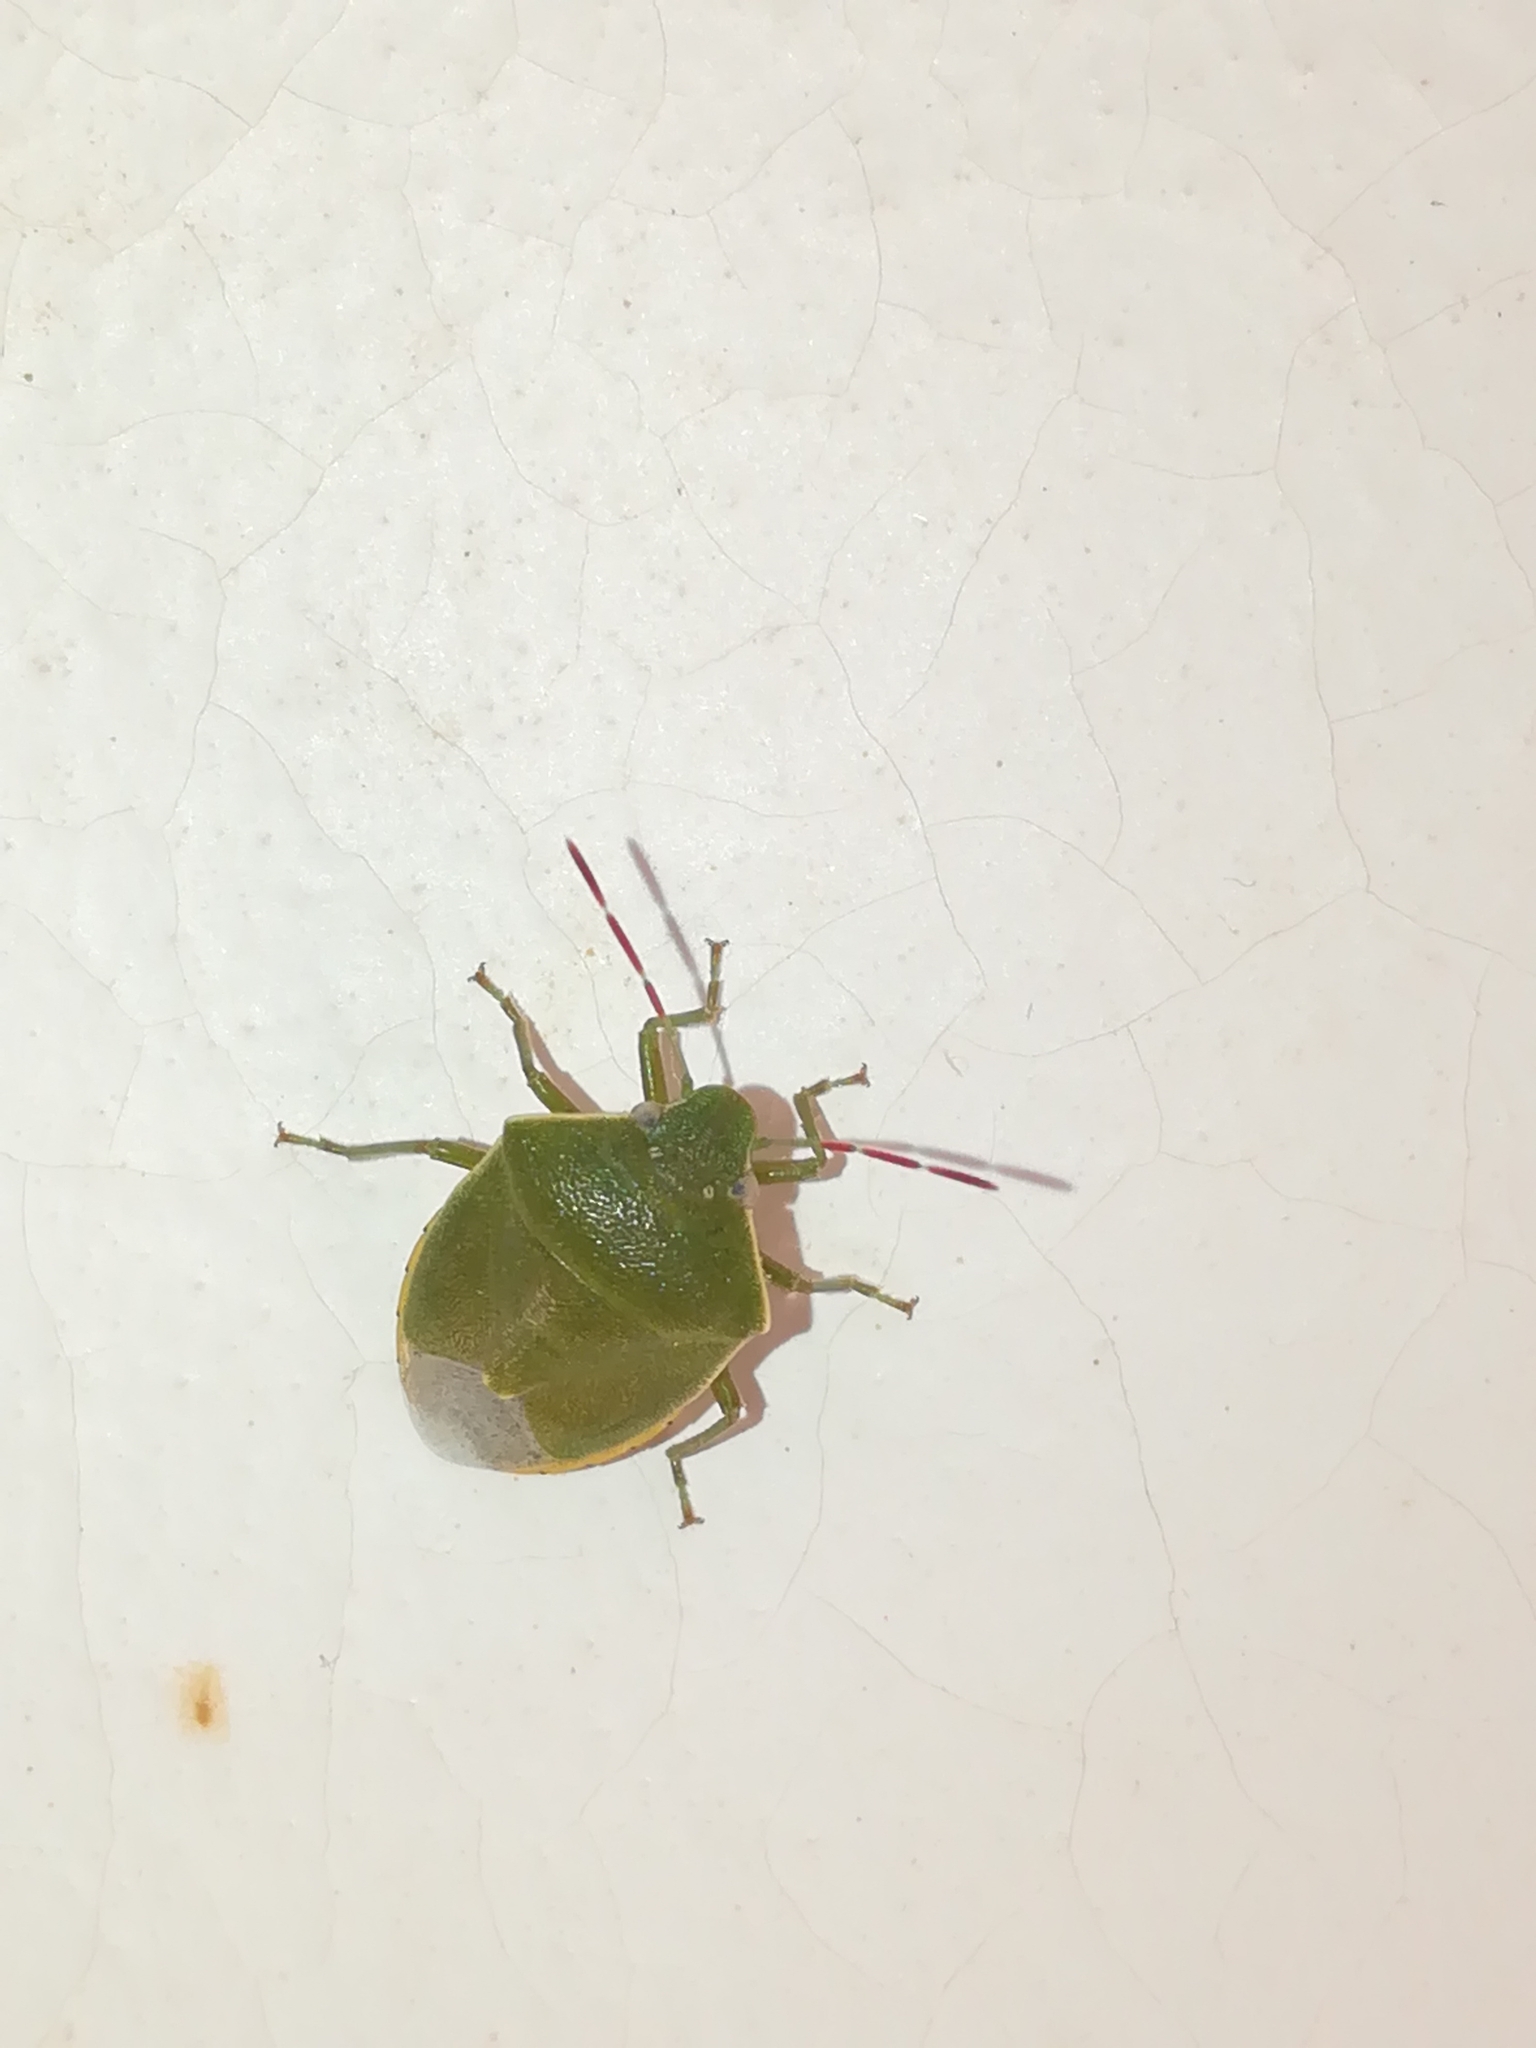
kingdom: Animalia
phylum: Arthropoda
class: Insecta
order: Hemiptera
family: Pentatomidae
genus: Acrosternum
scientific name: Acrosternum heegeri
